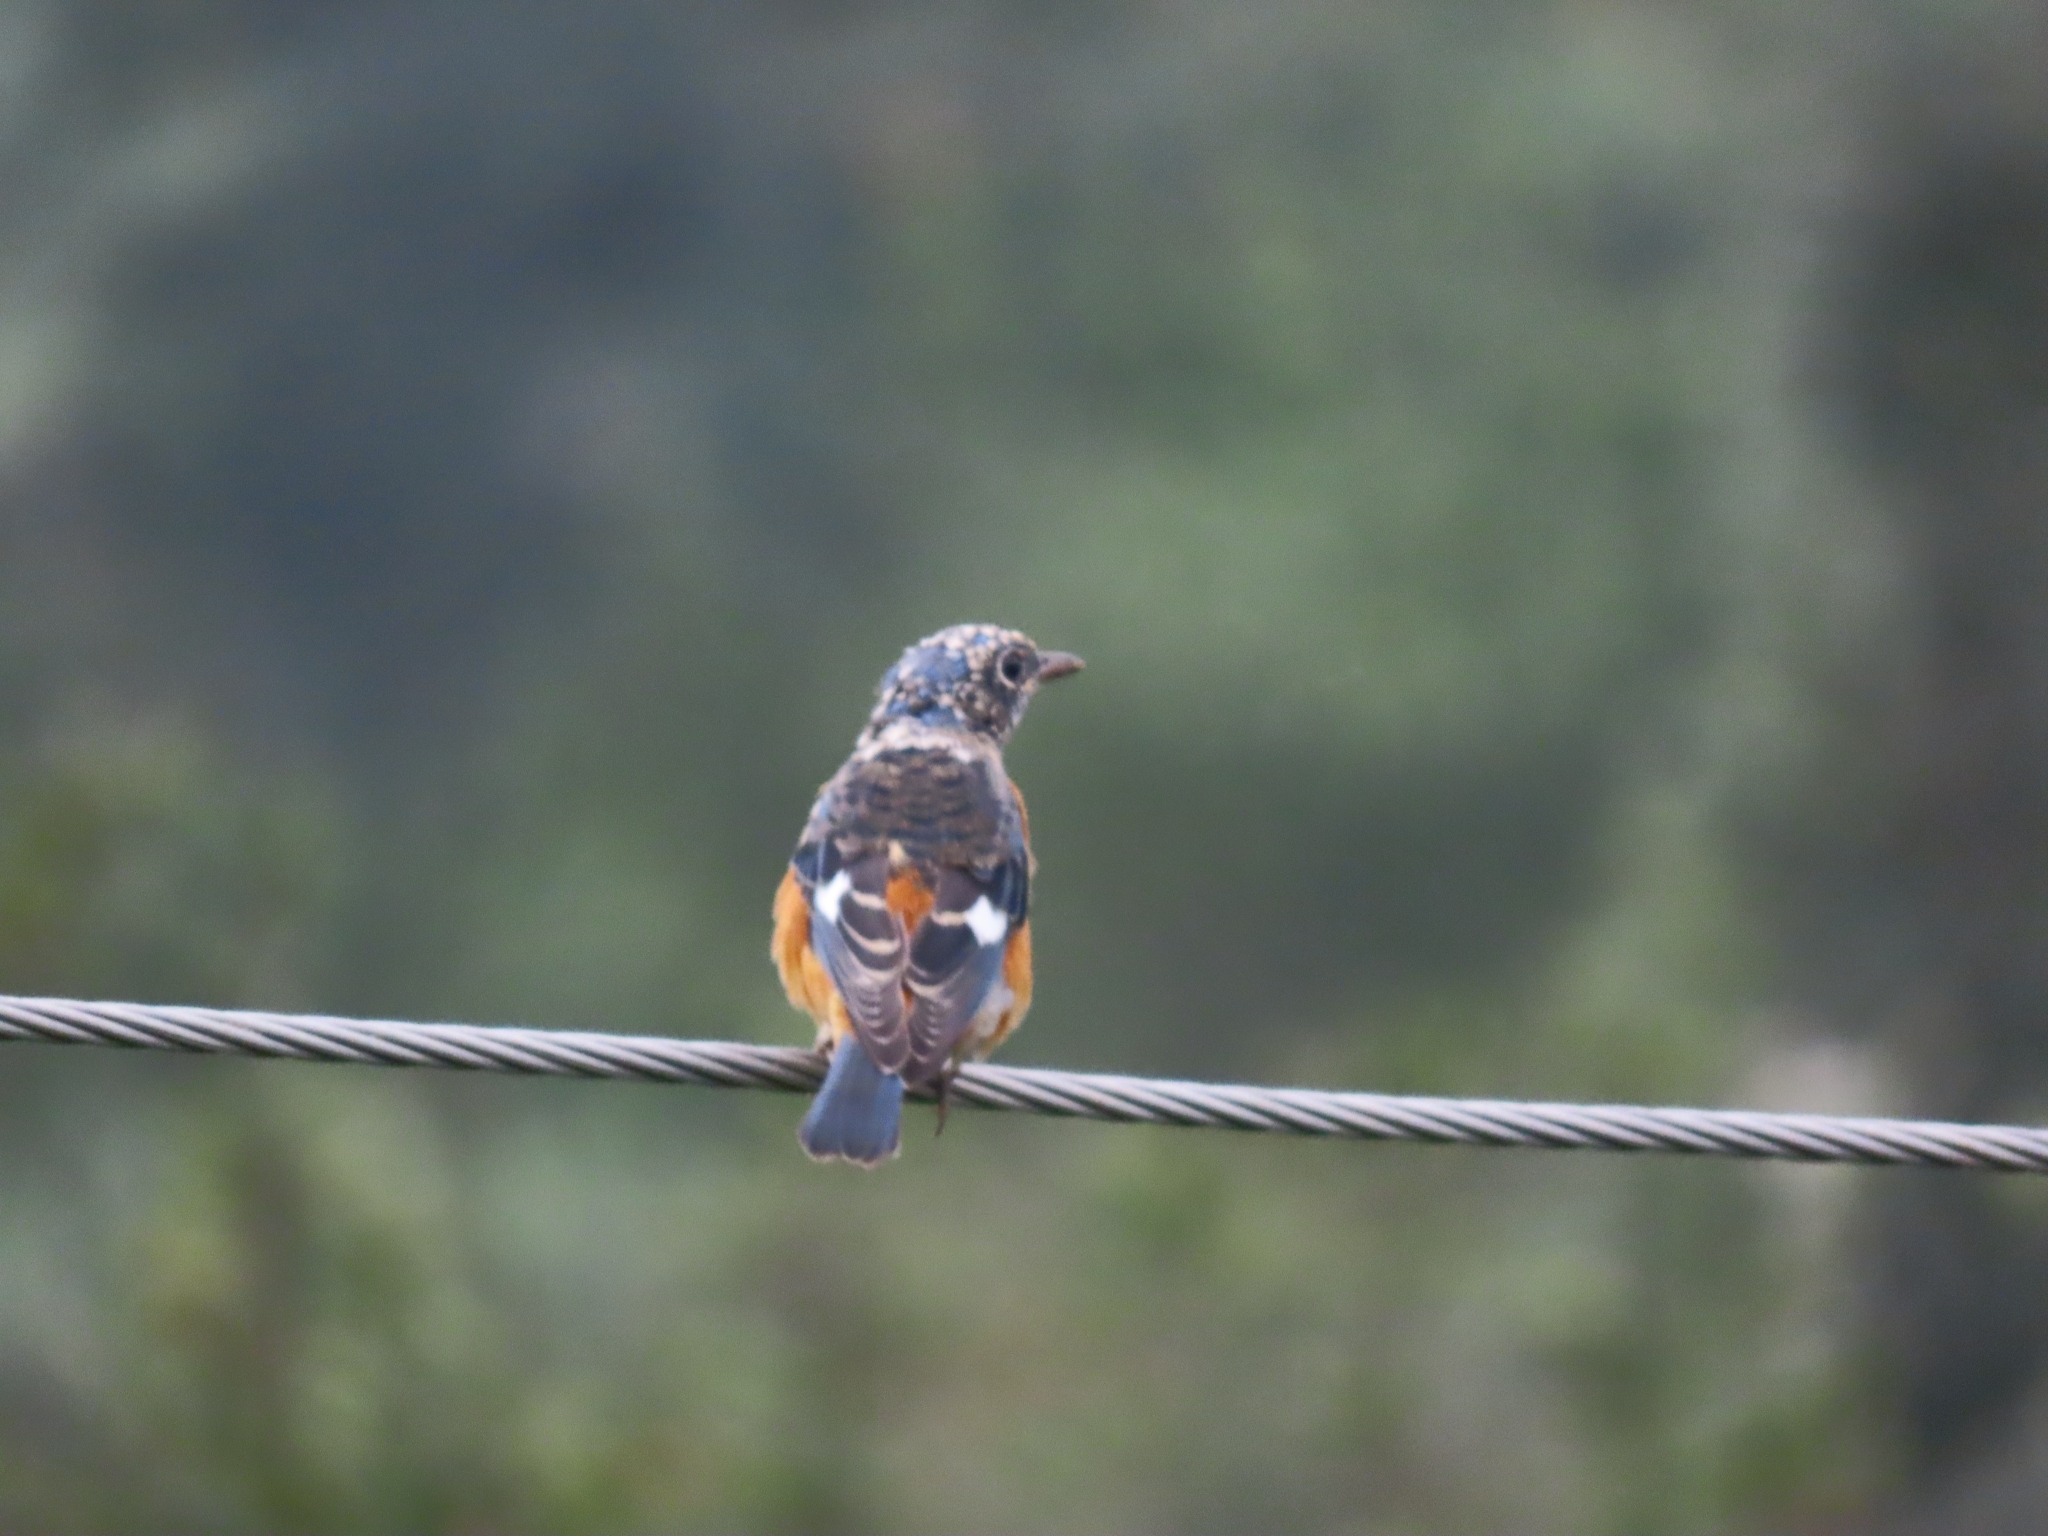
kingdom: Animalia
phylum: Chordata
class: Aves
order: Passeriformes
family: Muscicapidae
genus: Monticola
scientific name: Monticola cinclorhynchus
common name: Blue-capped rock thrush
